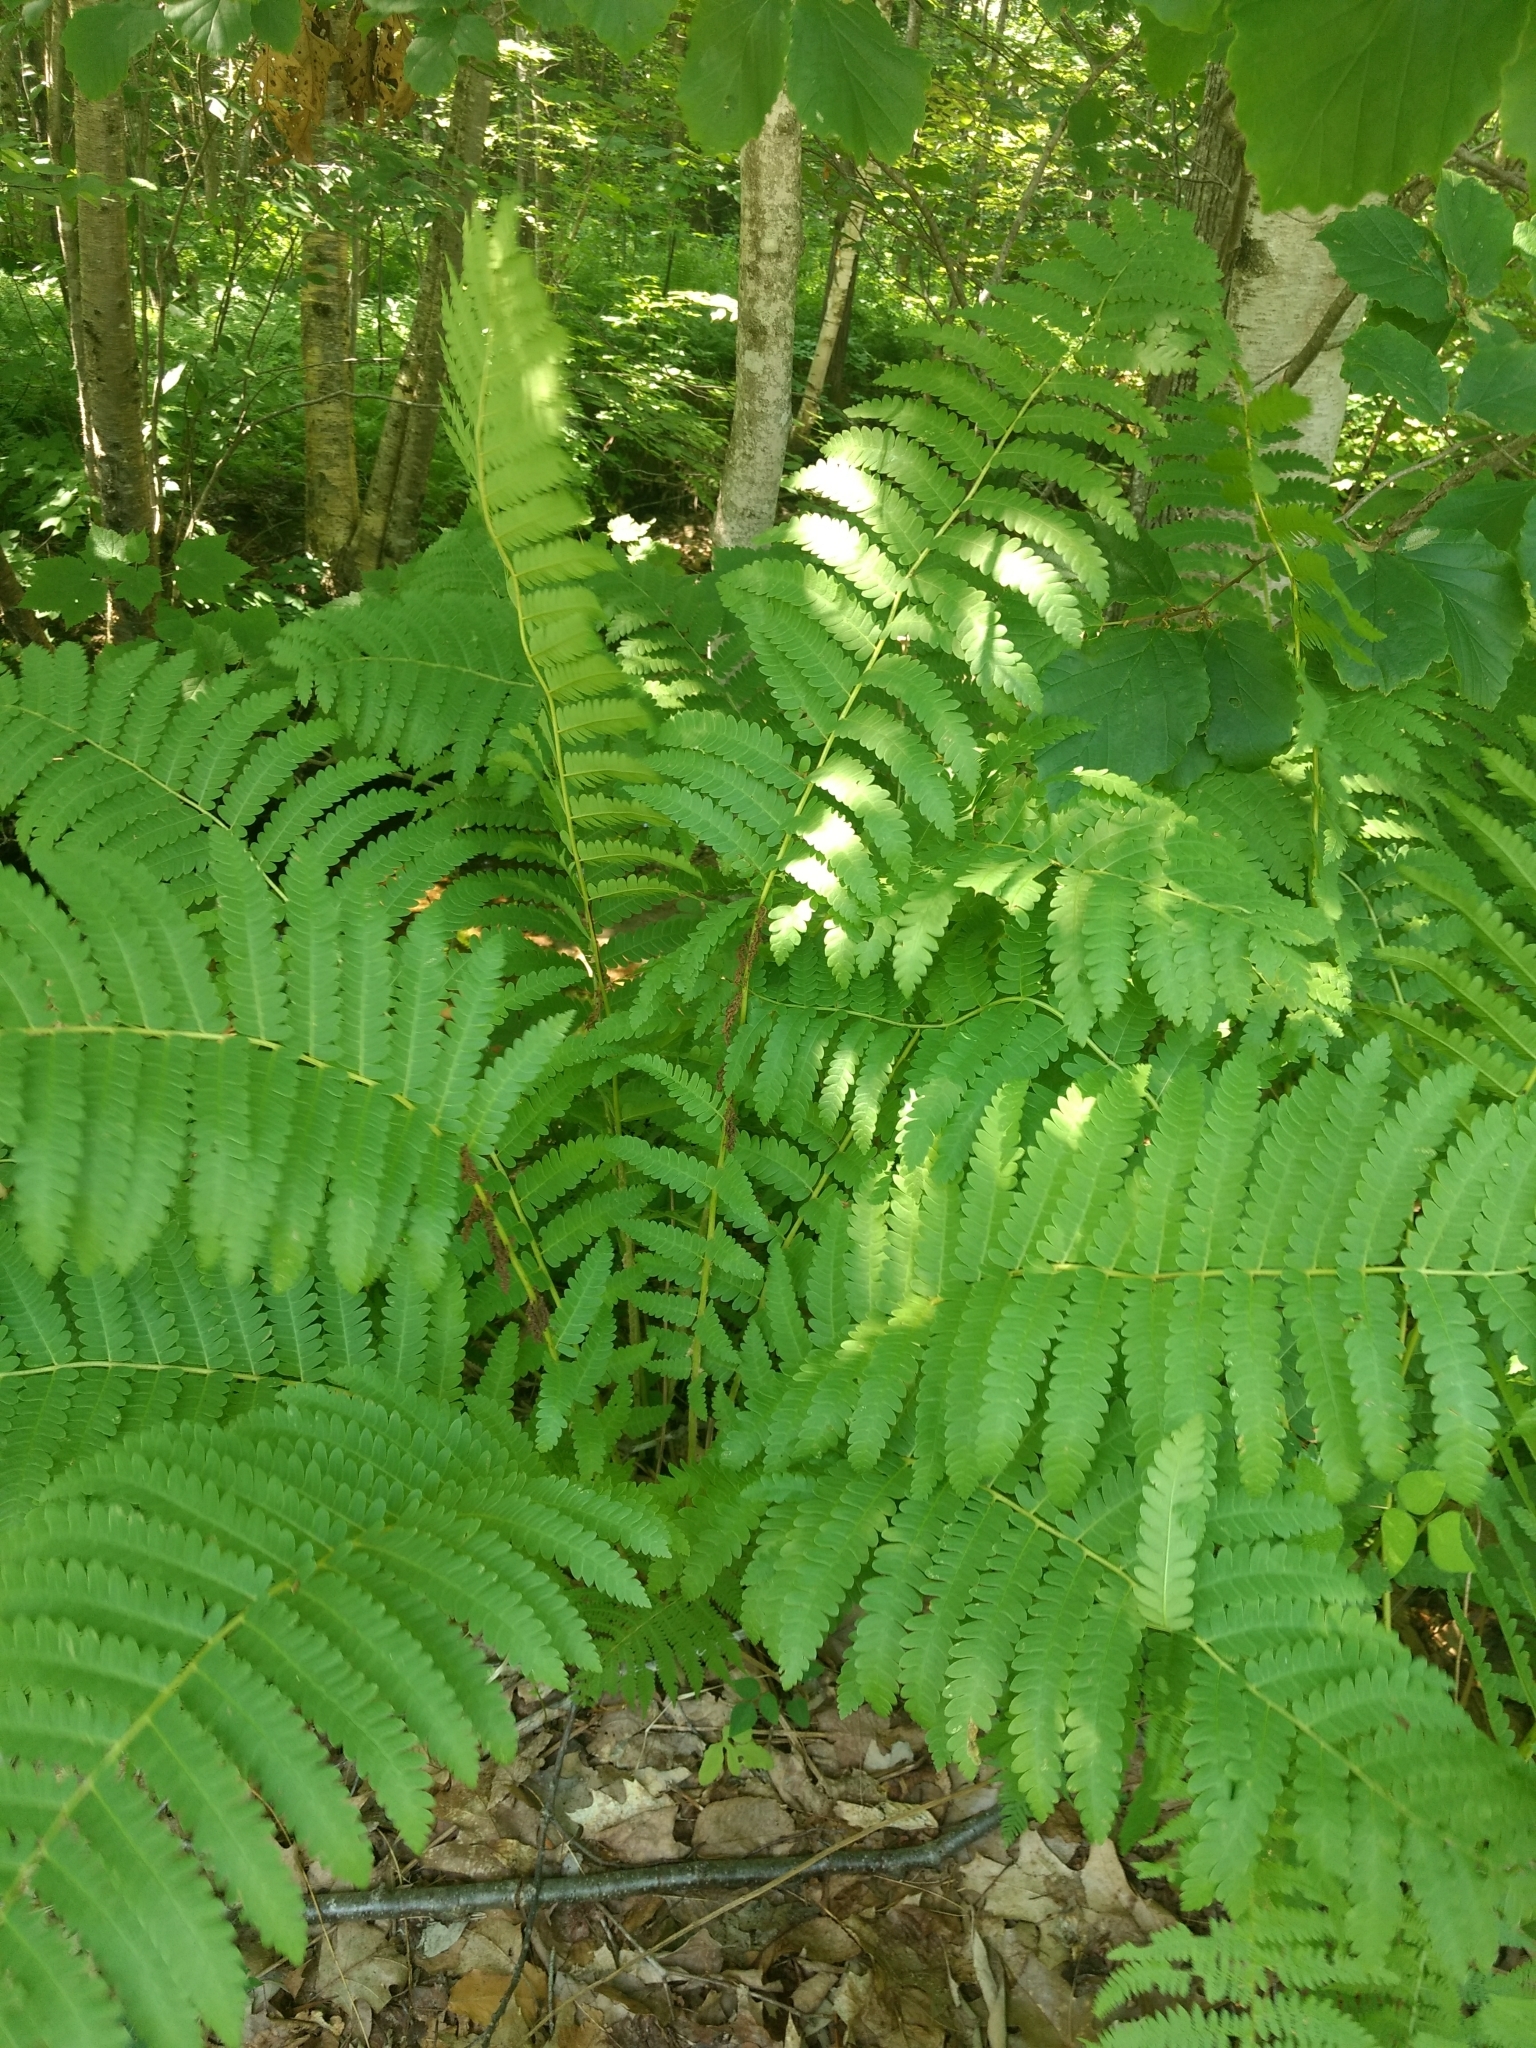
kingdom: Plantae
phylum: Tracheophyta
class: Polypodiopsida
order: Osmundales
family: Osmundaceae
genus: Claytosmunda
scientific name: Claytosmunda claytoniana
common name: Clayton's fern
